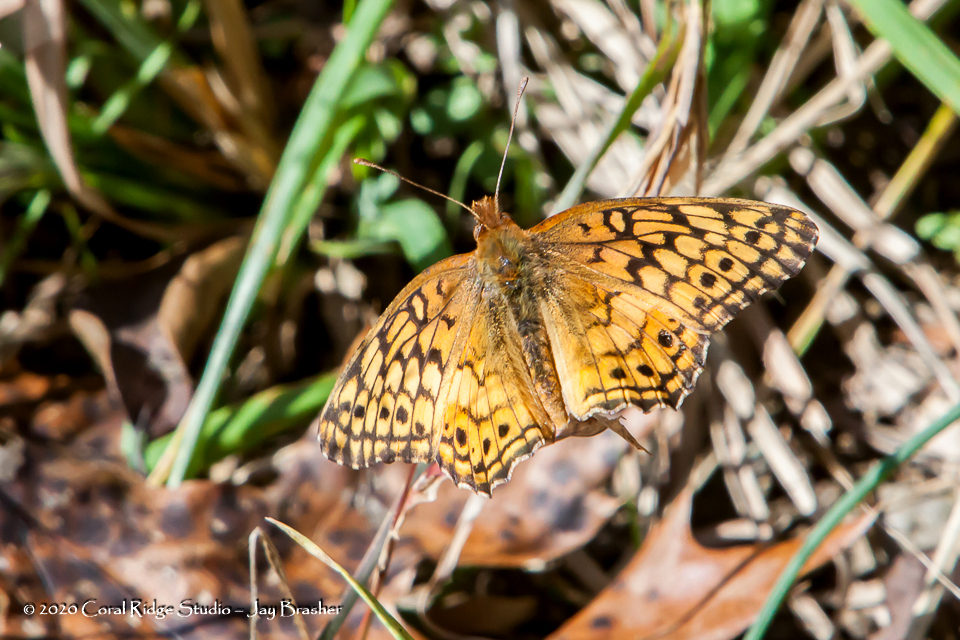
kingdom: Animalia
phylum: Arthropoda
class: Insecta
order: Lepidoptera
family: Nymphalidae
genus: Euptoieta
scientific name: Euptoieta claudia
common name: Variegated fritillary
